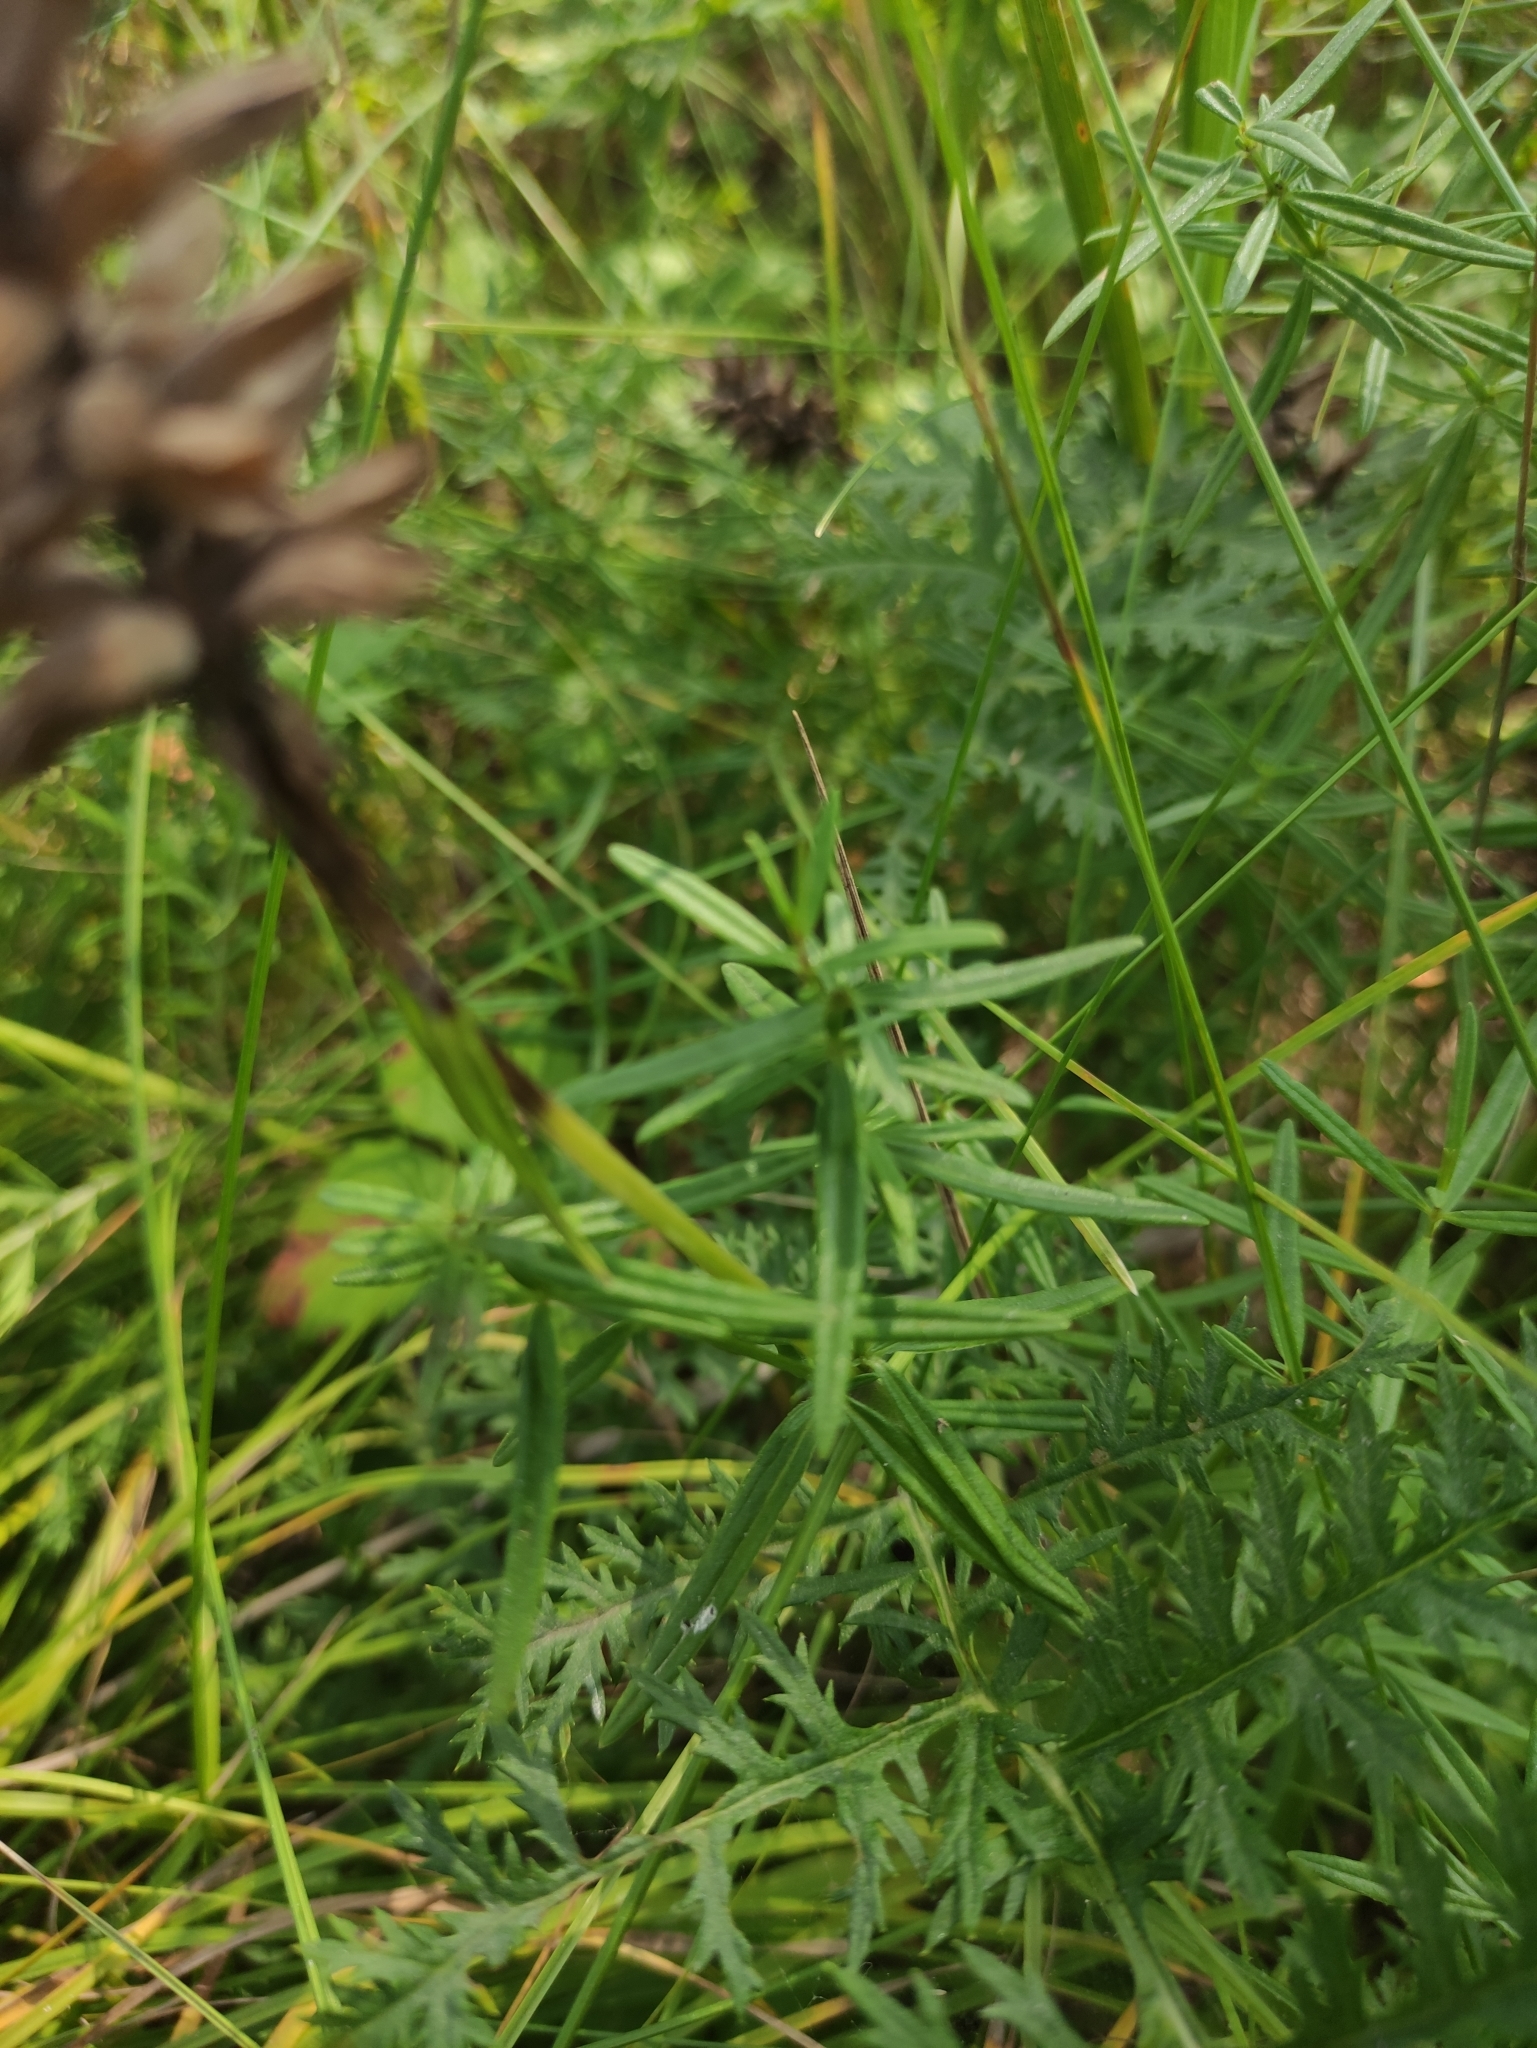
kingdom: Plantae
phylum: Tracheophyta
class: Magnoliopsida
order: Lamiales
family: Lamiaceae
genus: Dracocephalum
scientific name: Dracocephalum ruyschiana
